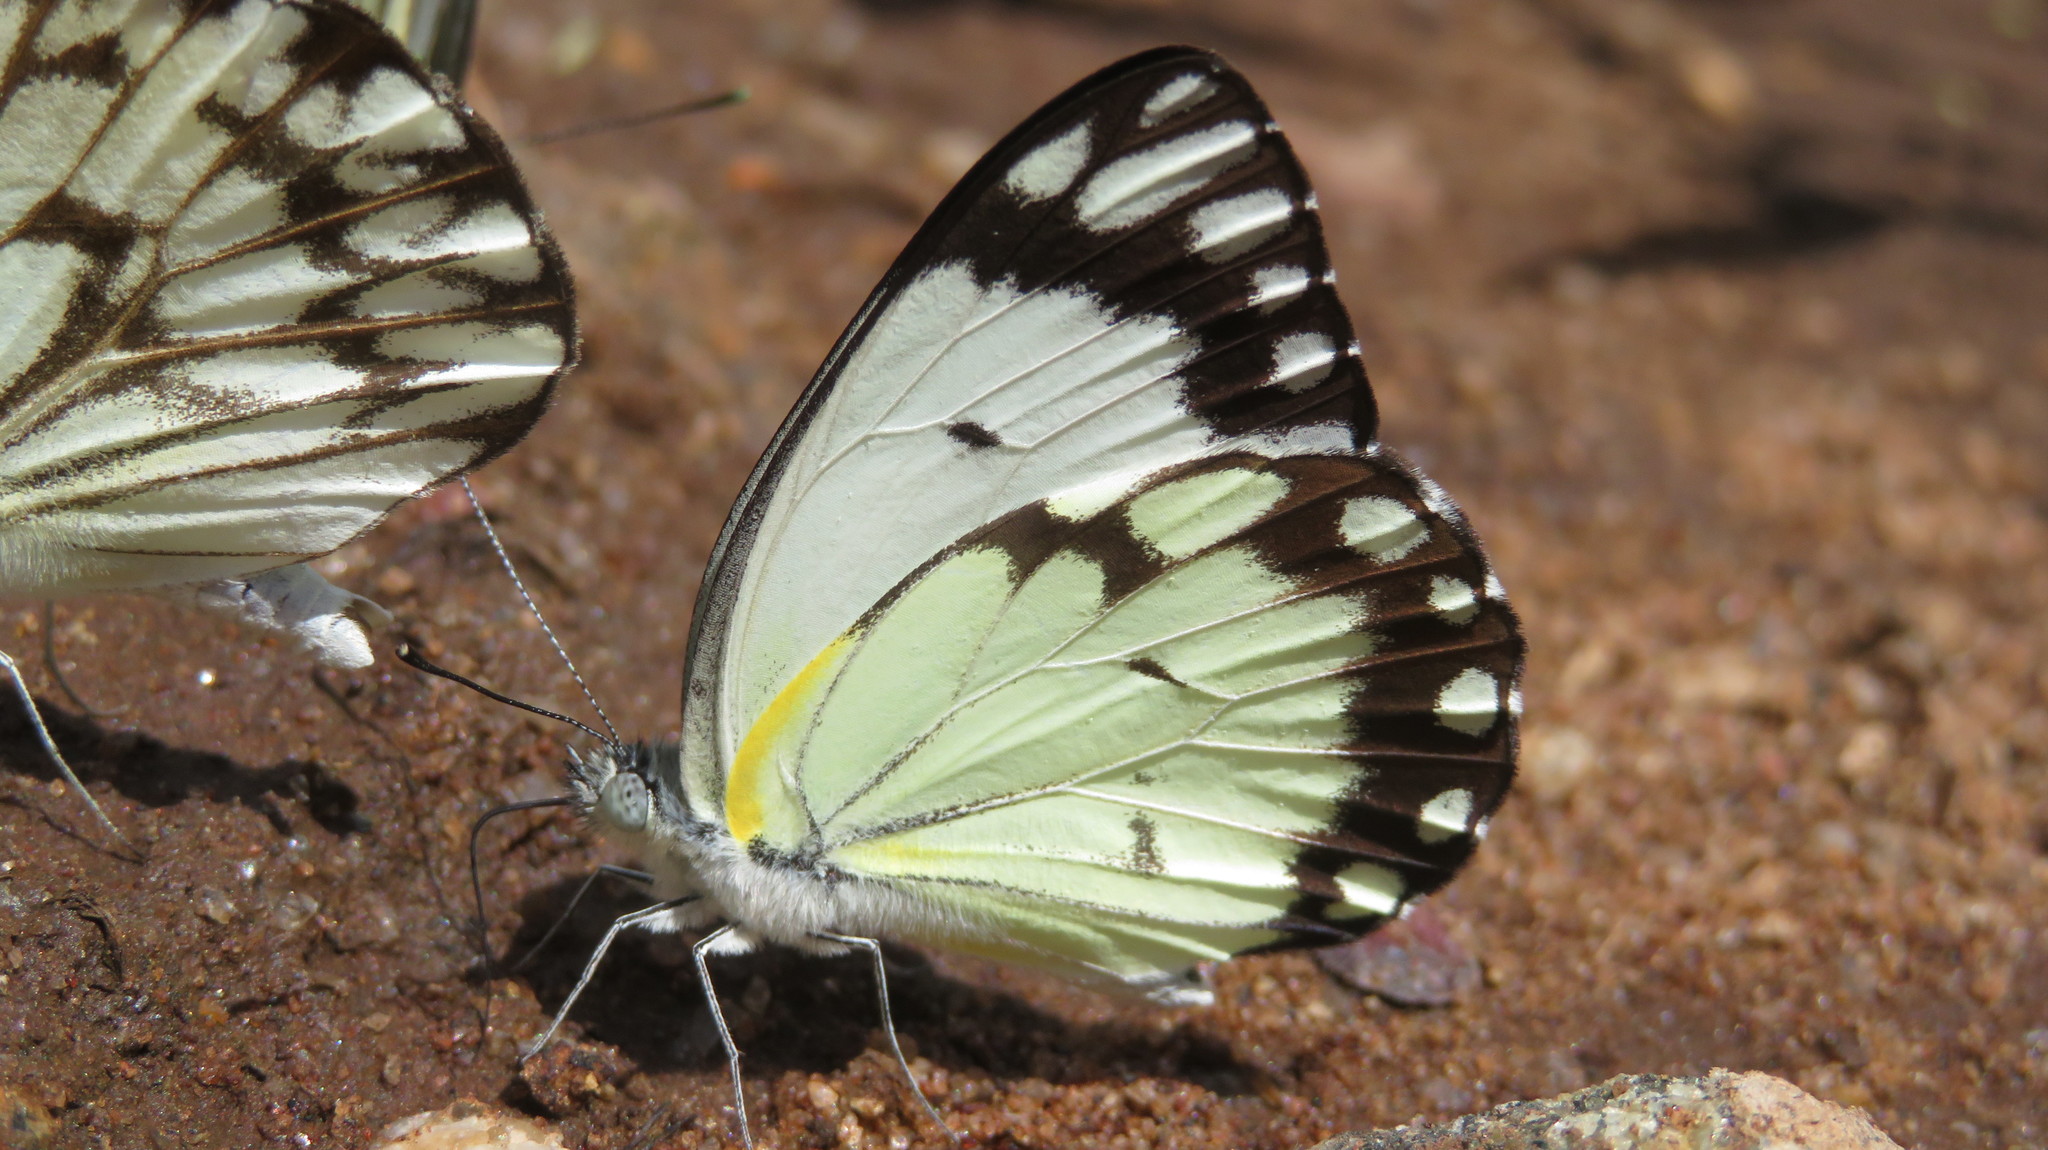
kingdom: Animalia
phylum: Arthropoda
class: Insecta
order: Lepidoptera
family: Pieridae
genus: Belenois
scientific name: Belenois creona
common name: African caper white
